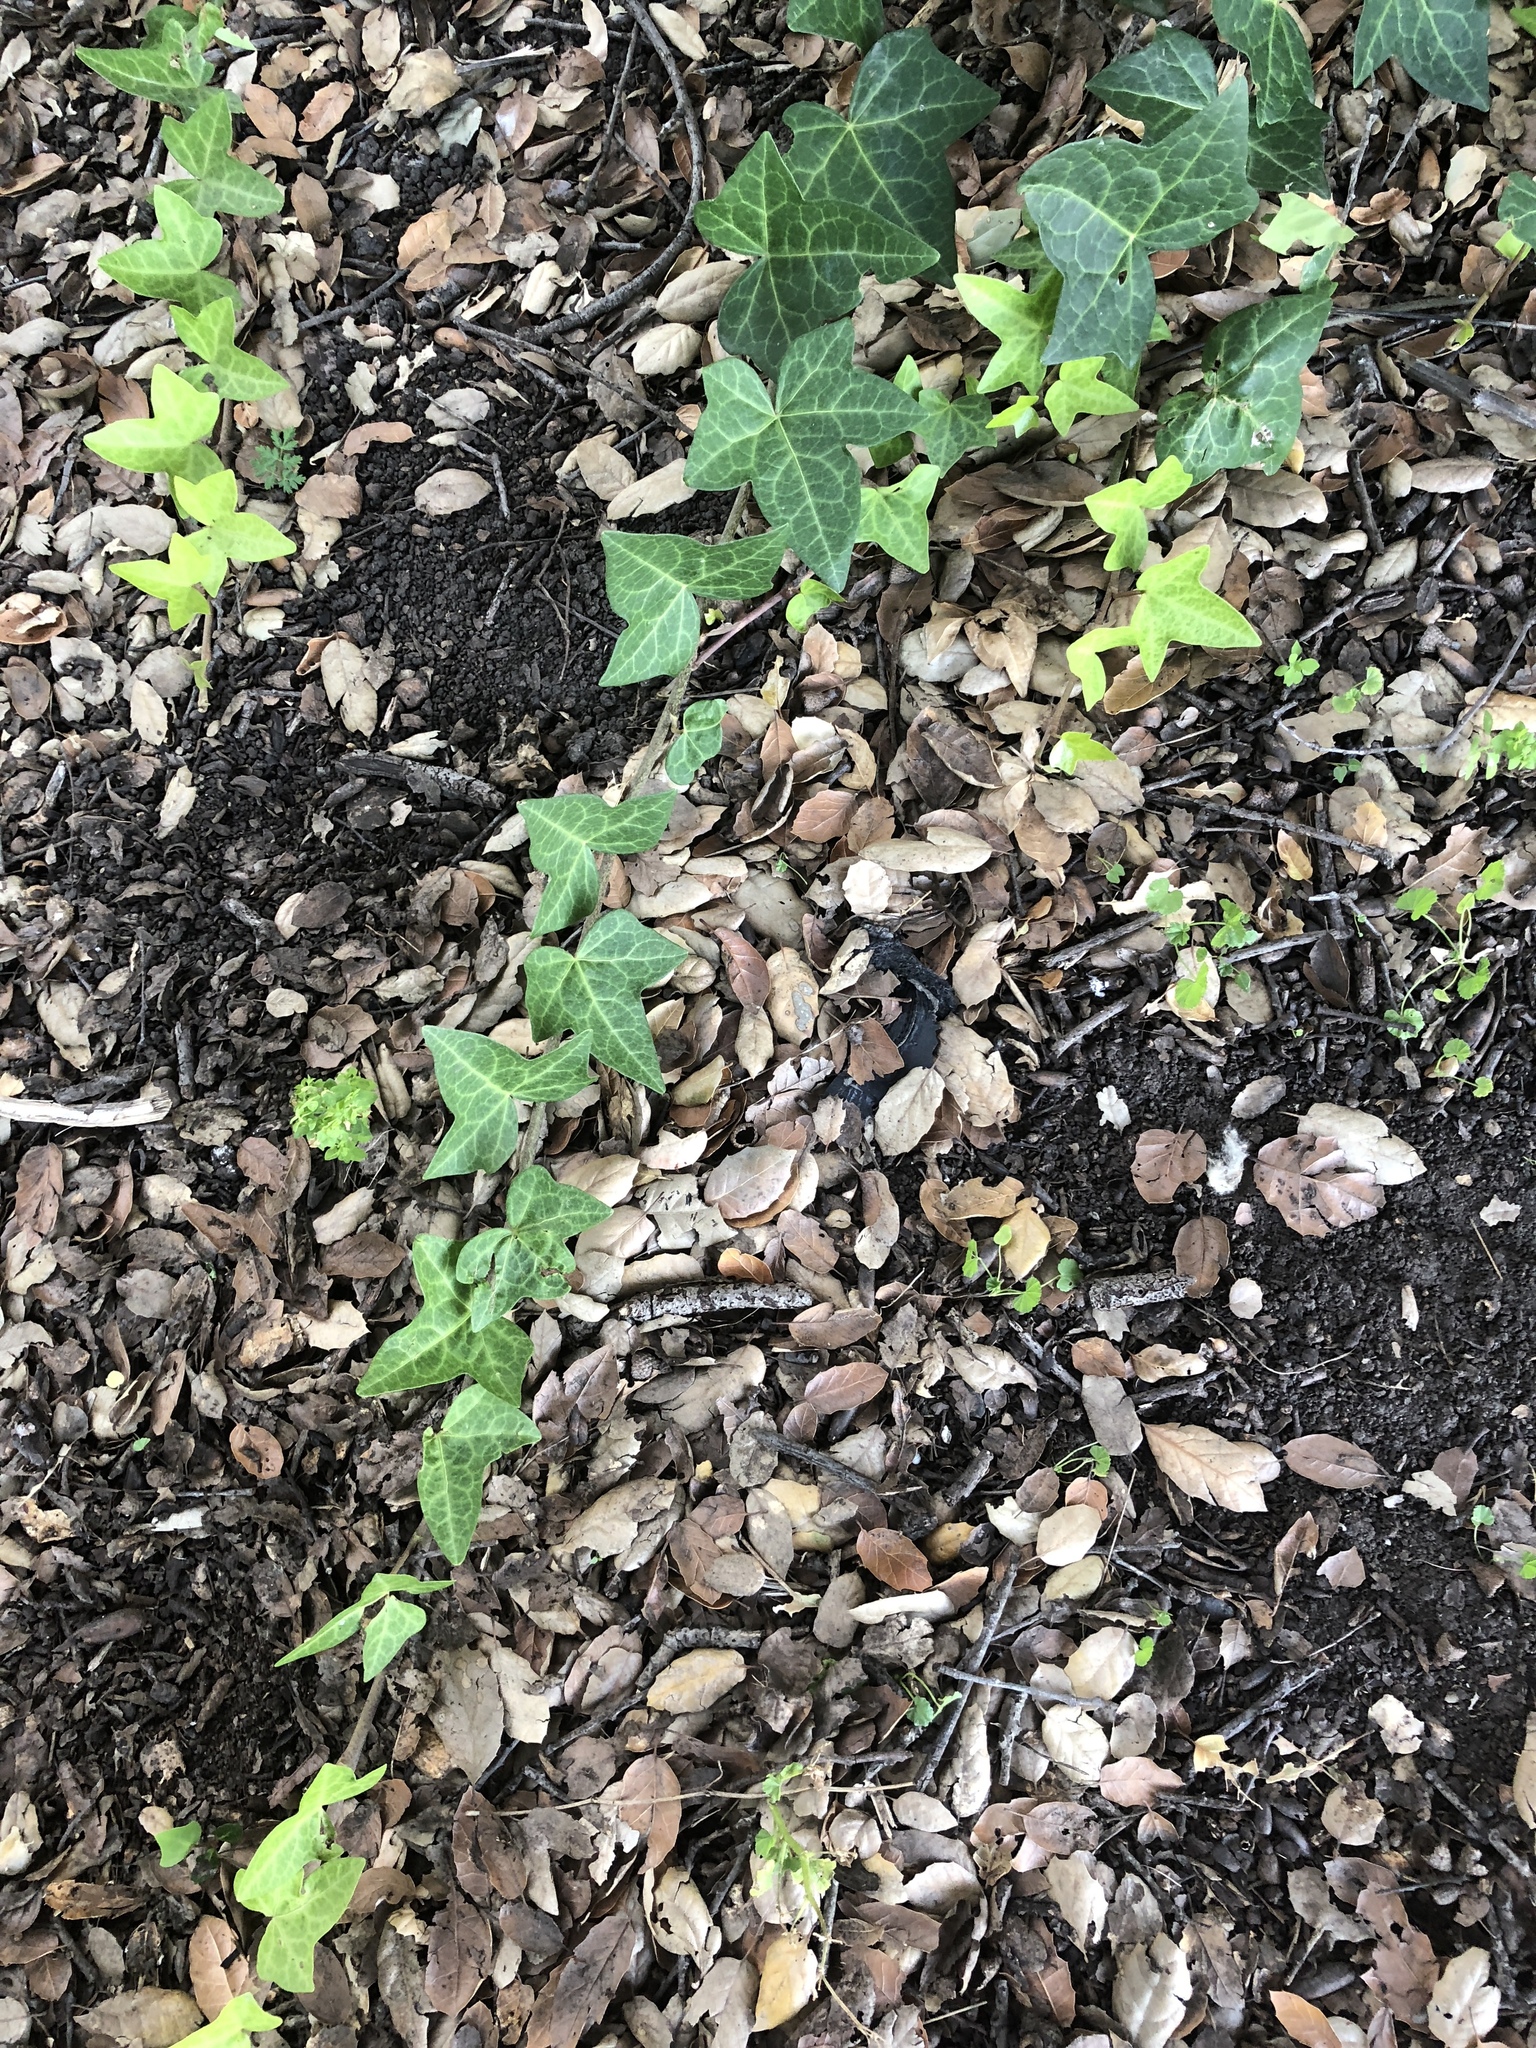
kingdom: Plantae
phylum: Tracheophyta
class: Magnoliopsida
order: Apiales
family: Araliaceae
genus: Hedera
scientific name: Hedera helix
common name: Ivy
